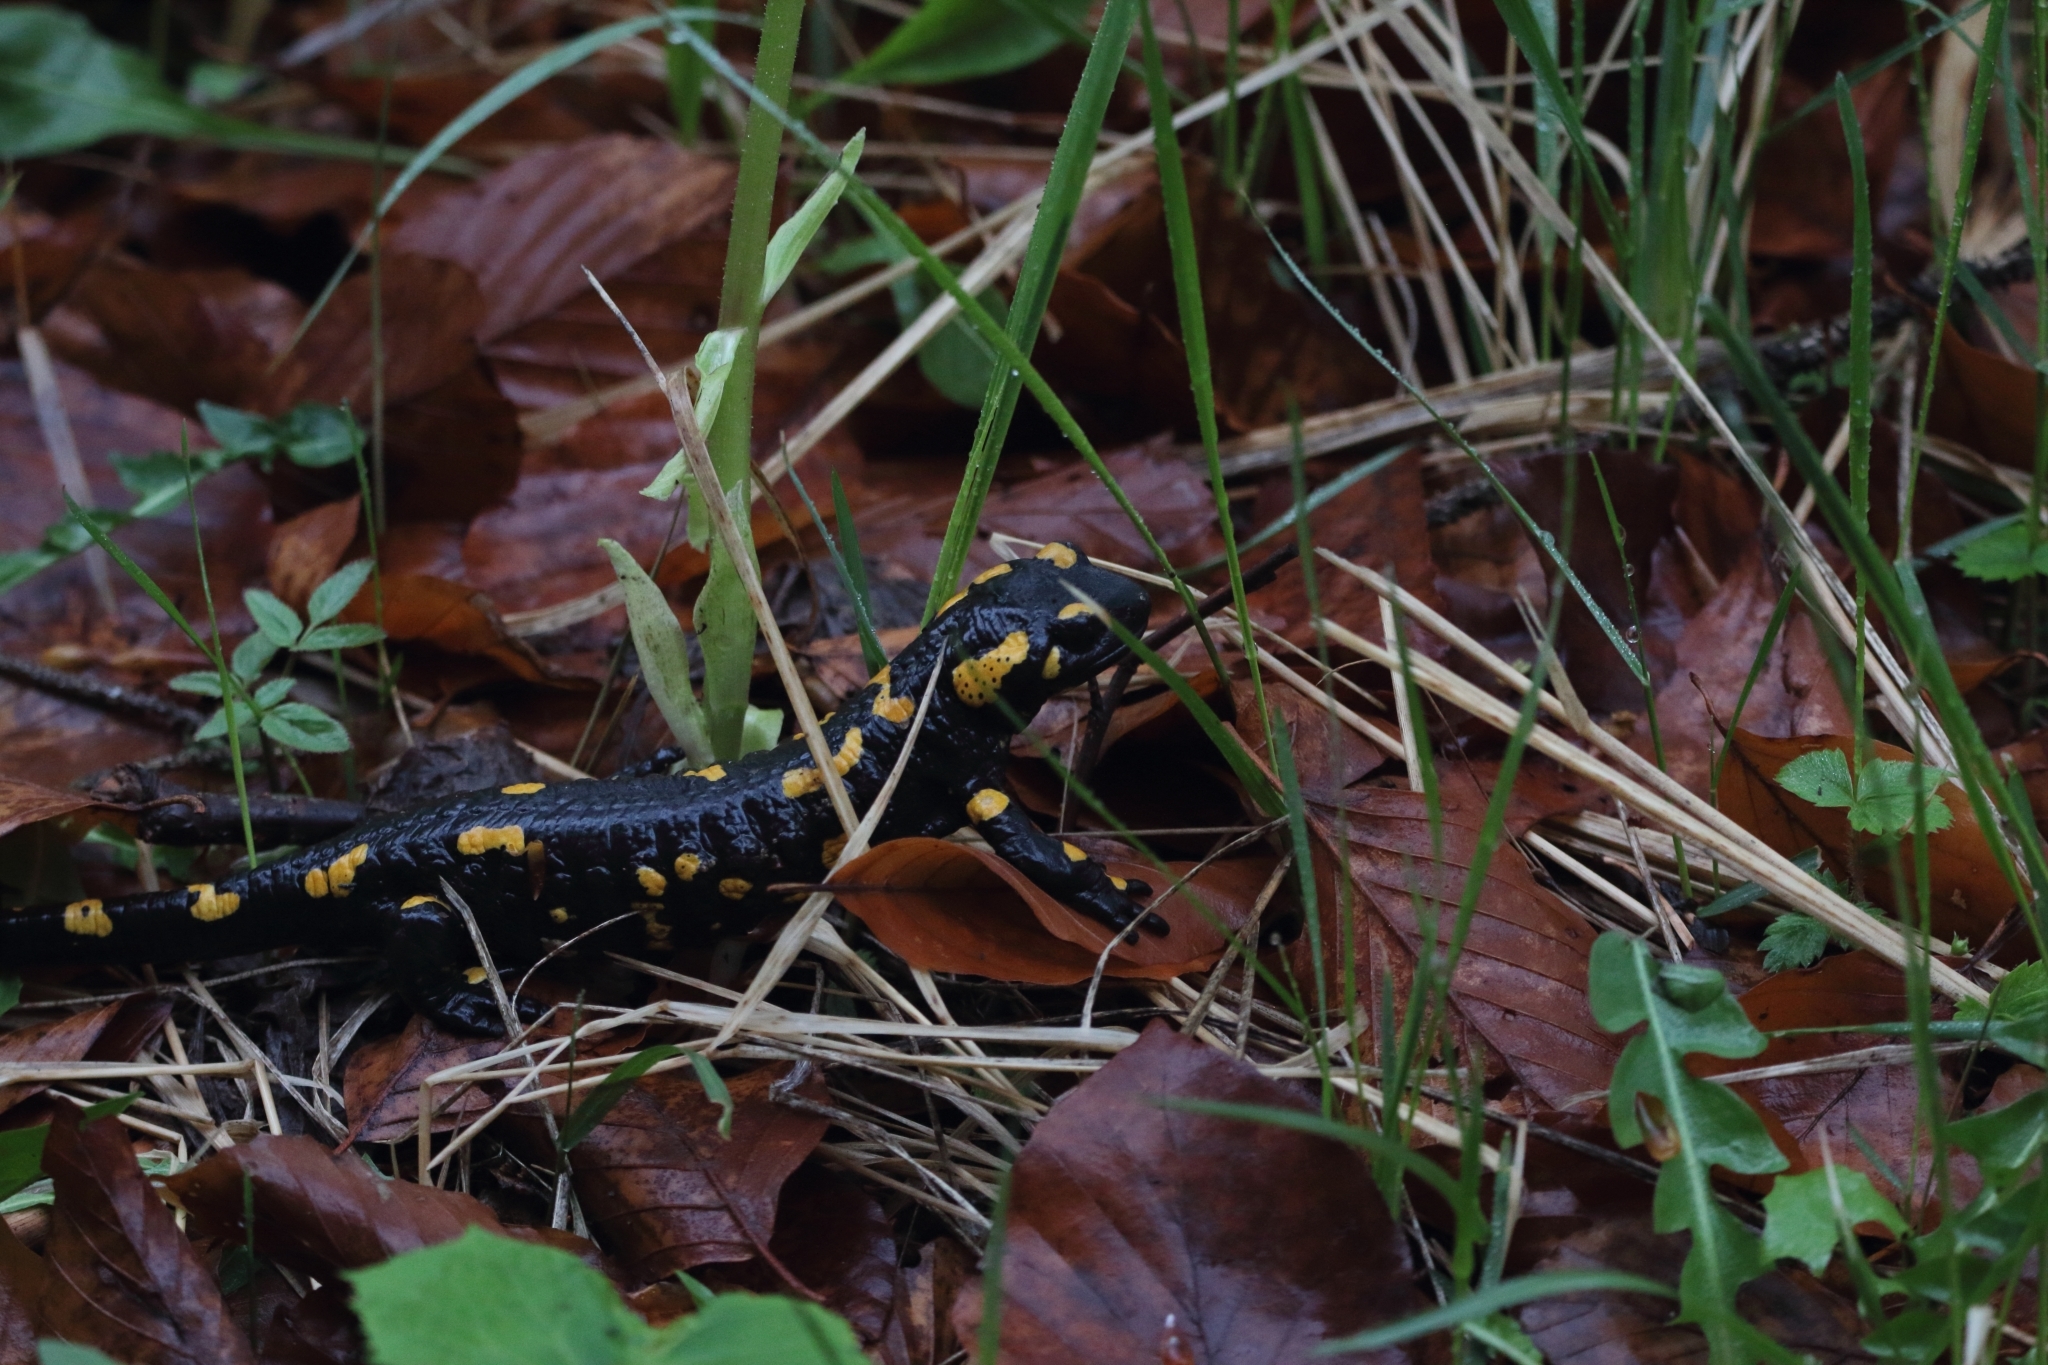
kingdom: Animalia
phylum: Chordata
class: Amphibia
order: Caudata
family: Salamandridae
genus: Salamandra
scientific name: Salamandra salamandra
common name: Fire salamander
